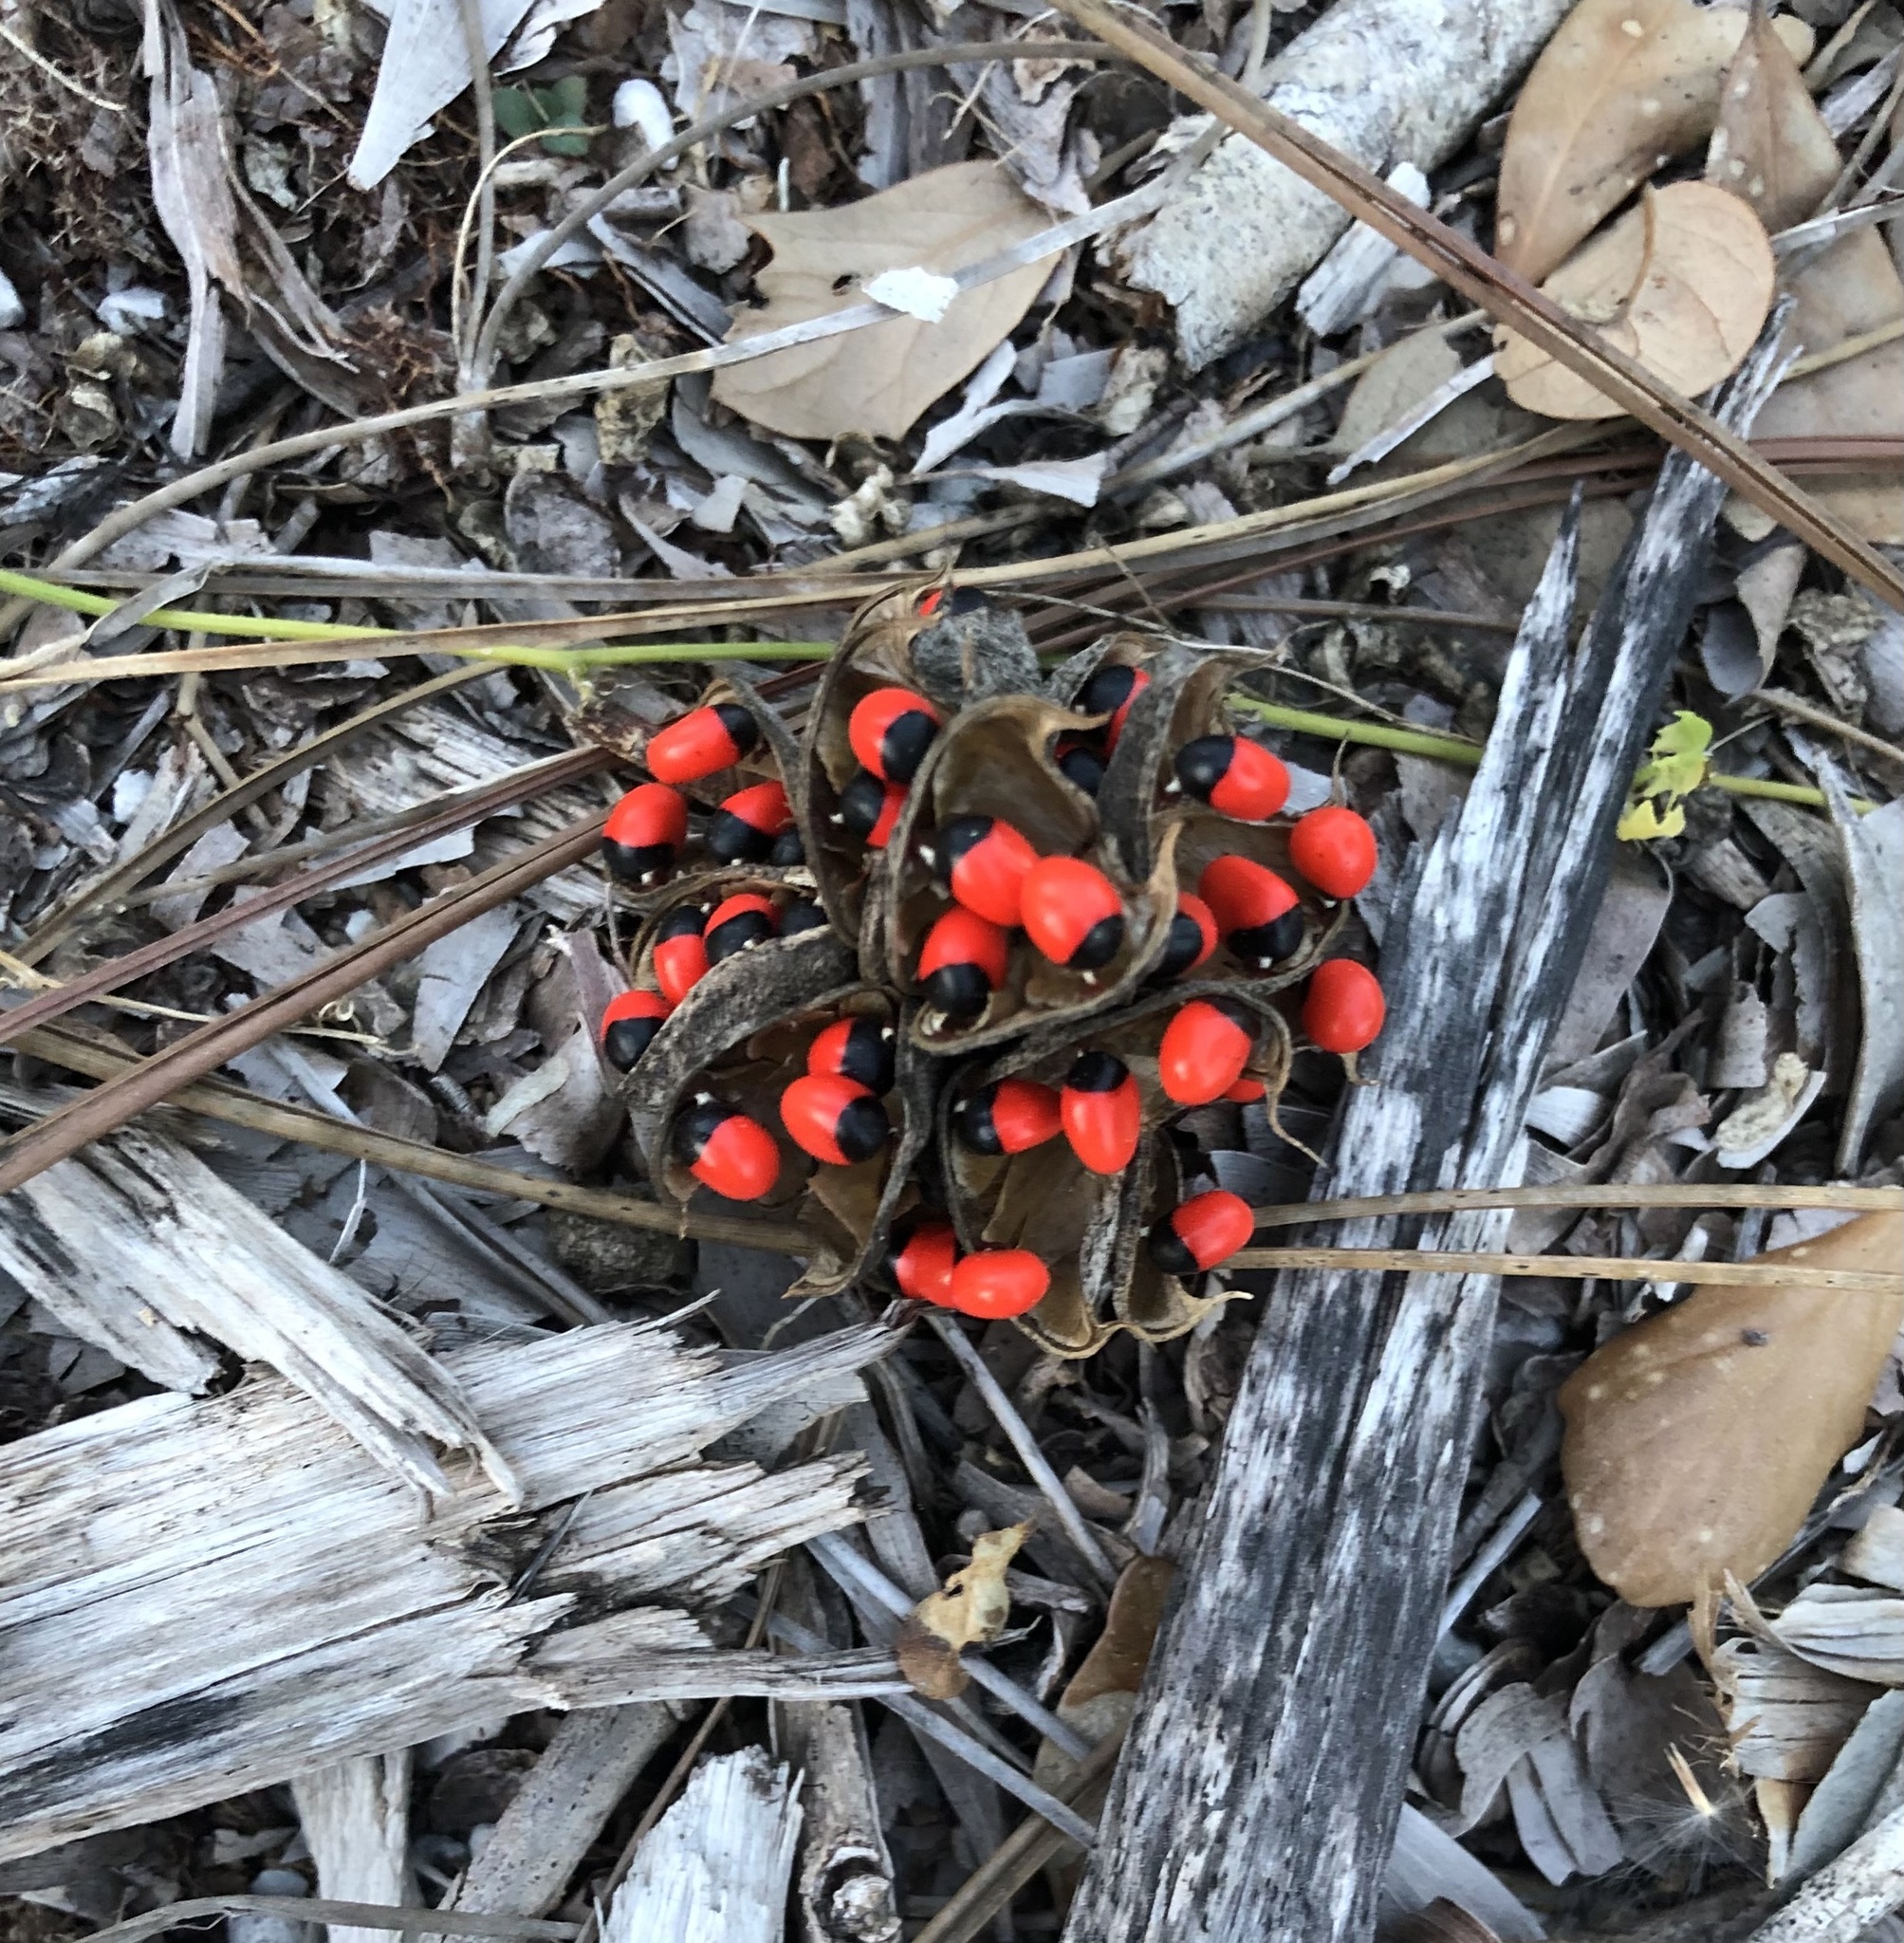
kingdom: Plantae
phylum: Tracheophyta
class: Magnoliopsida
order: Fabales
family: Fabaceae
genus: Abrus
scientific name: Abrus precatorius
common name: Rosarypea
